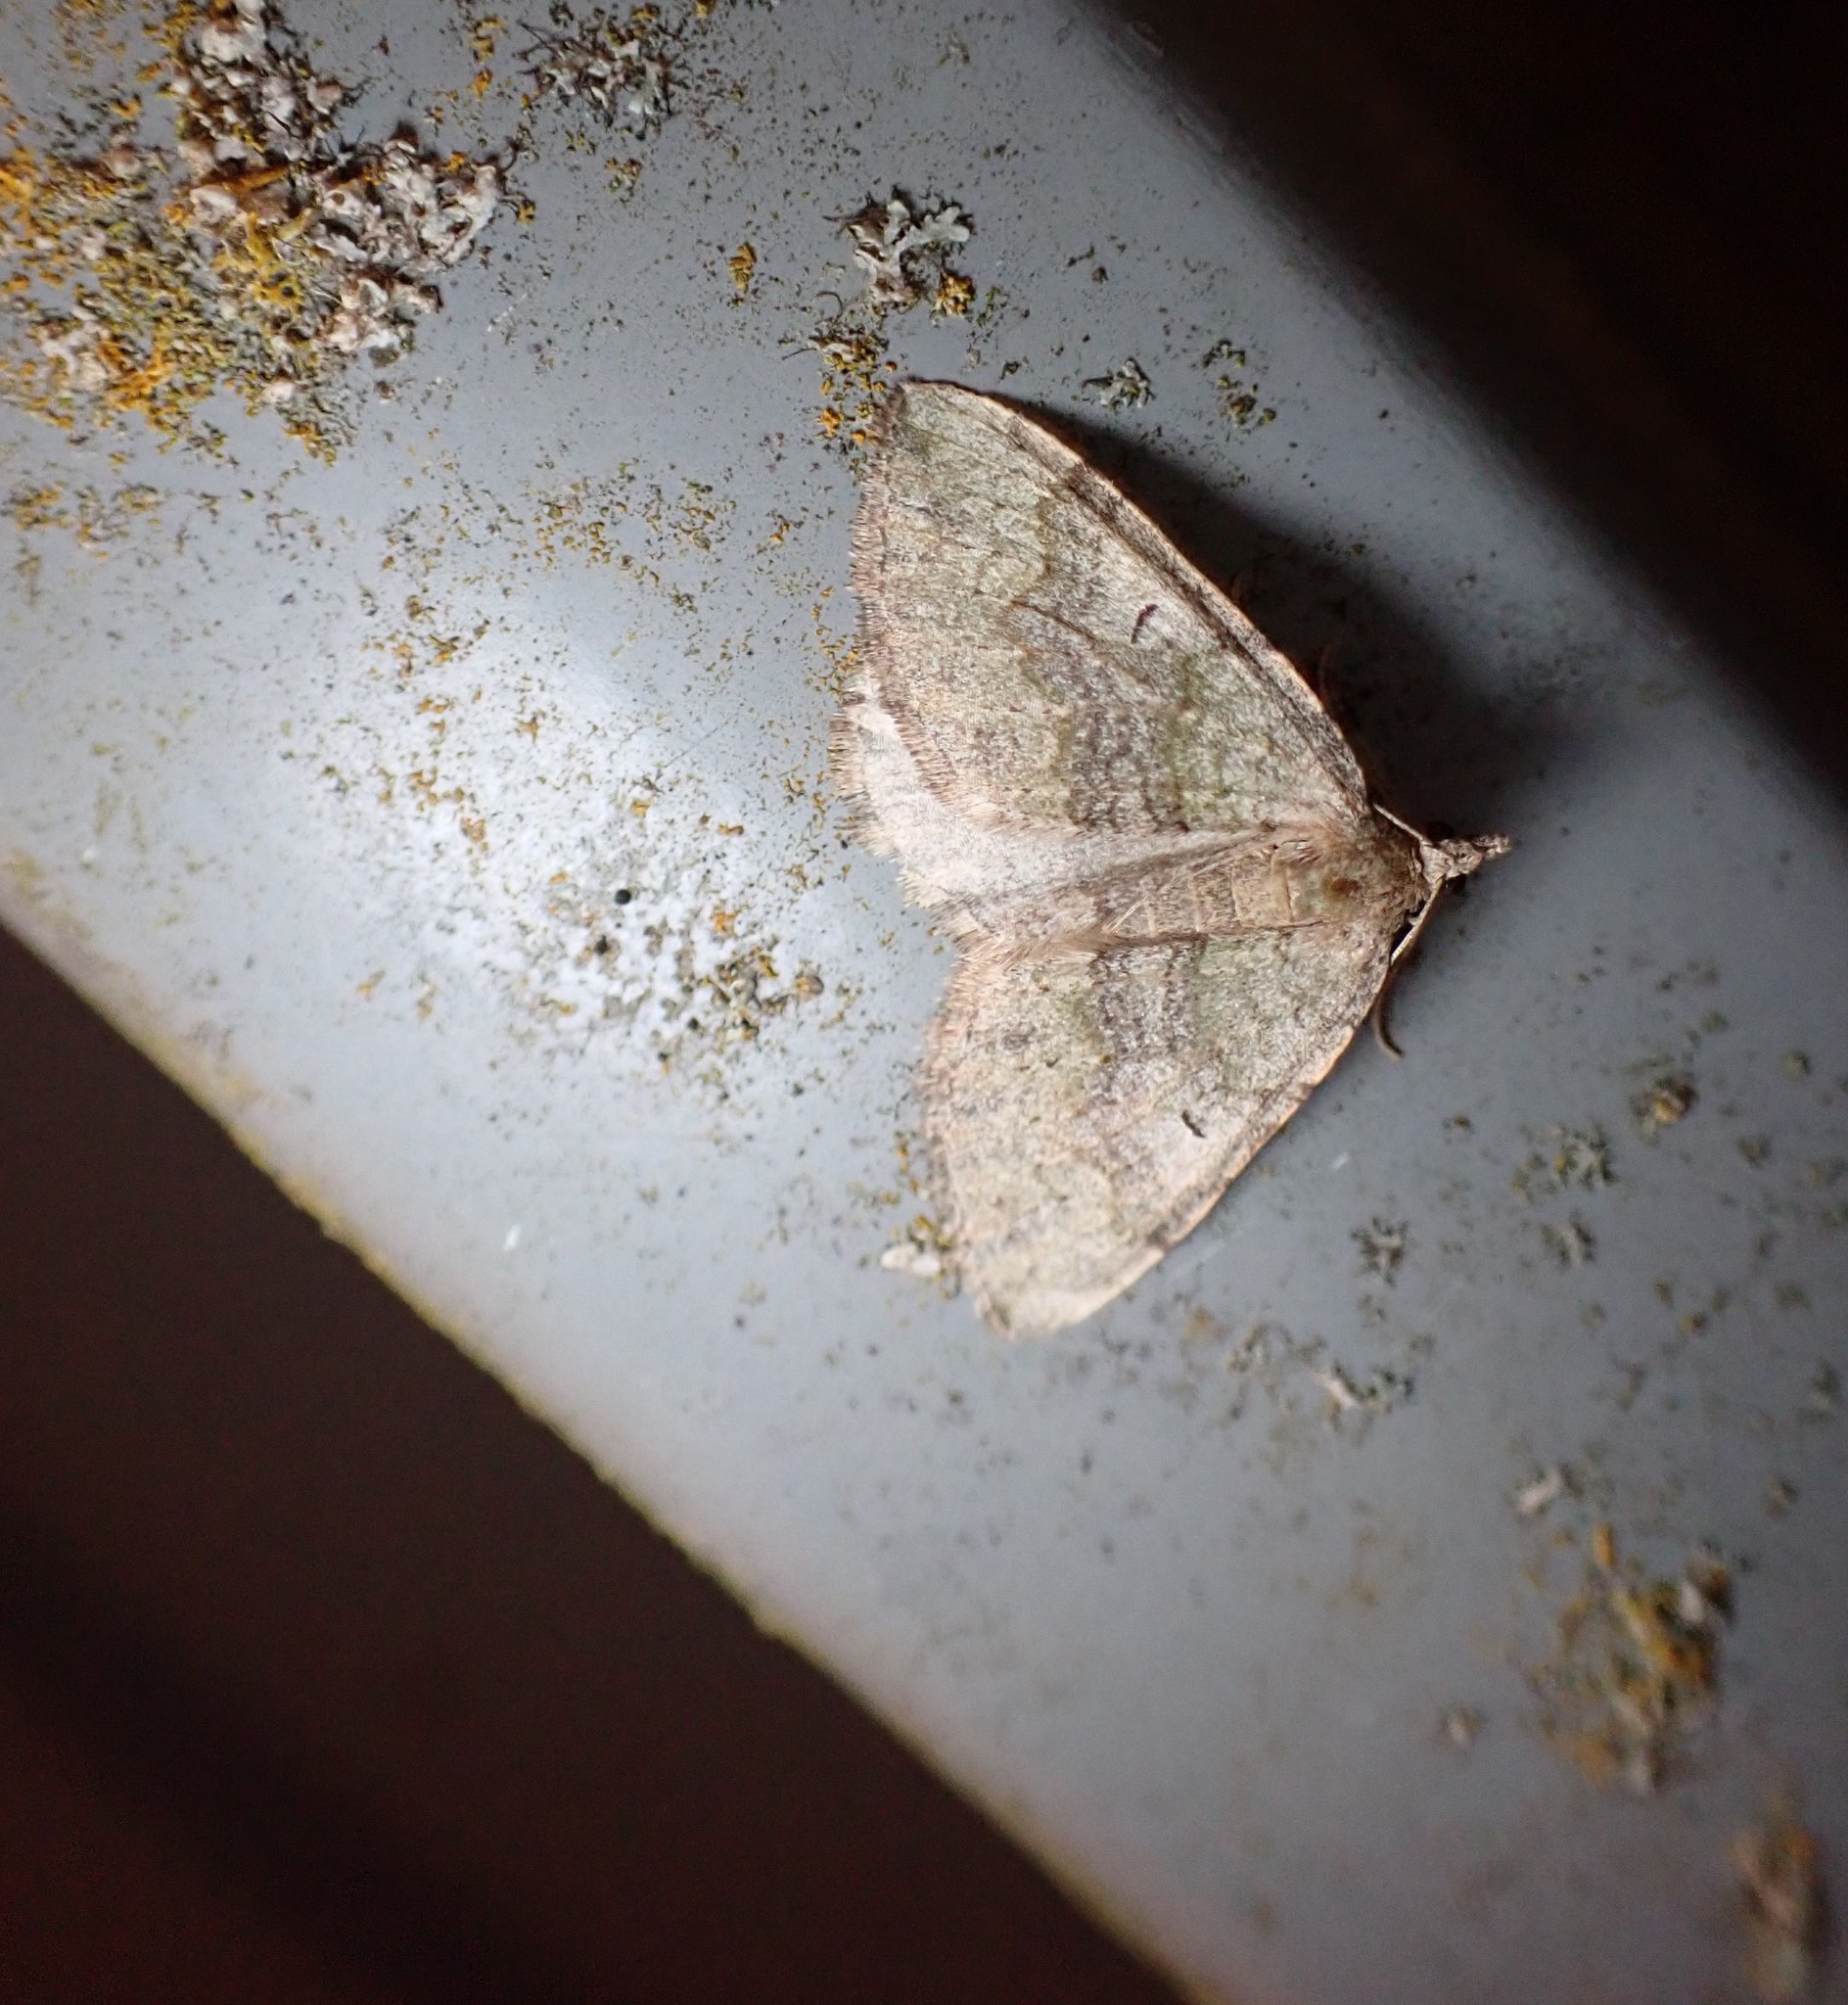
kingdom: Animalia
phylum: Arthropoda
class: Insecta
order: Lepidoptera
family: Geometridae
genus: Epyaxa
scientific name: Epyaxa rosearia
